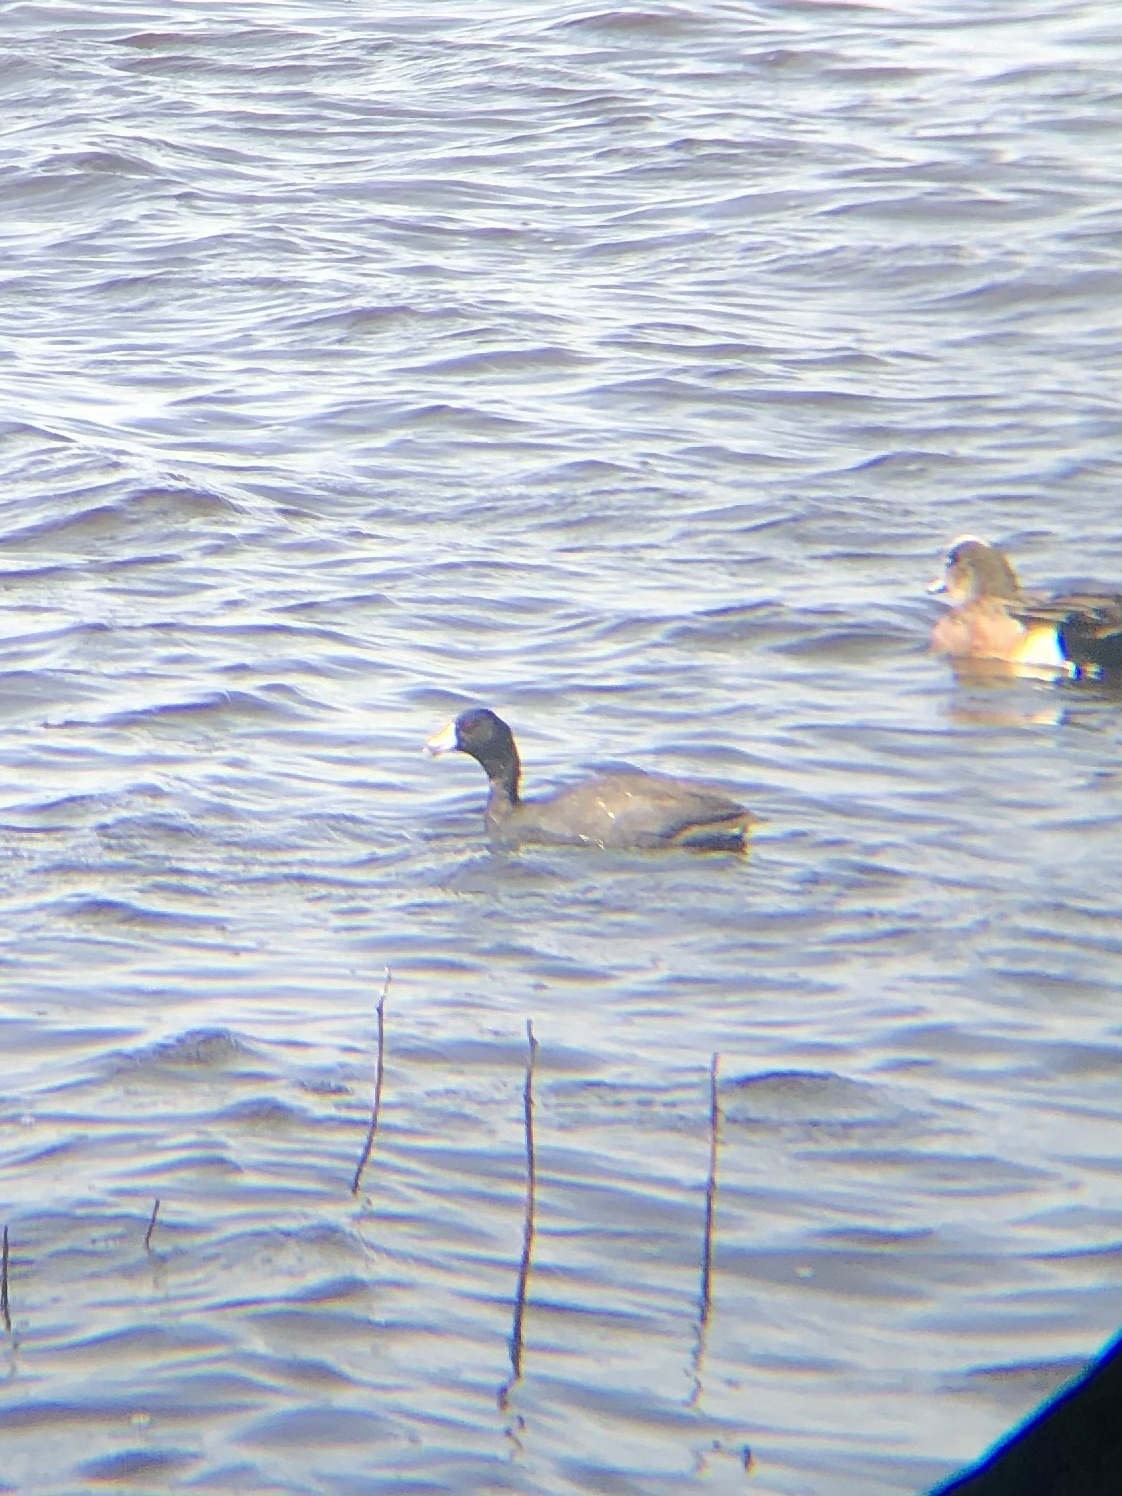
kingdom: Animalia
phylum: Chordata
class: Aves
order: Gruiformes
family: Rallidae
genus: Fulica
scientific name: Fulica americana
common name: American coot
